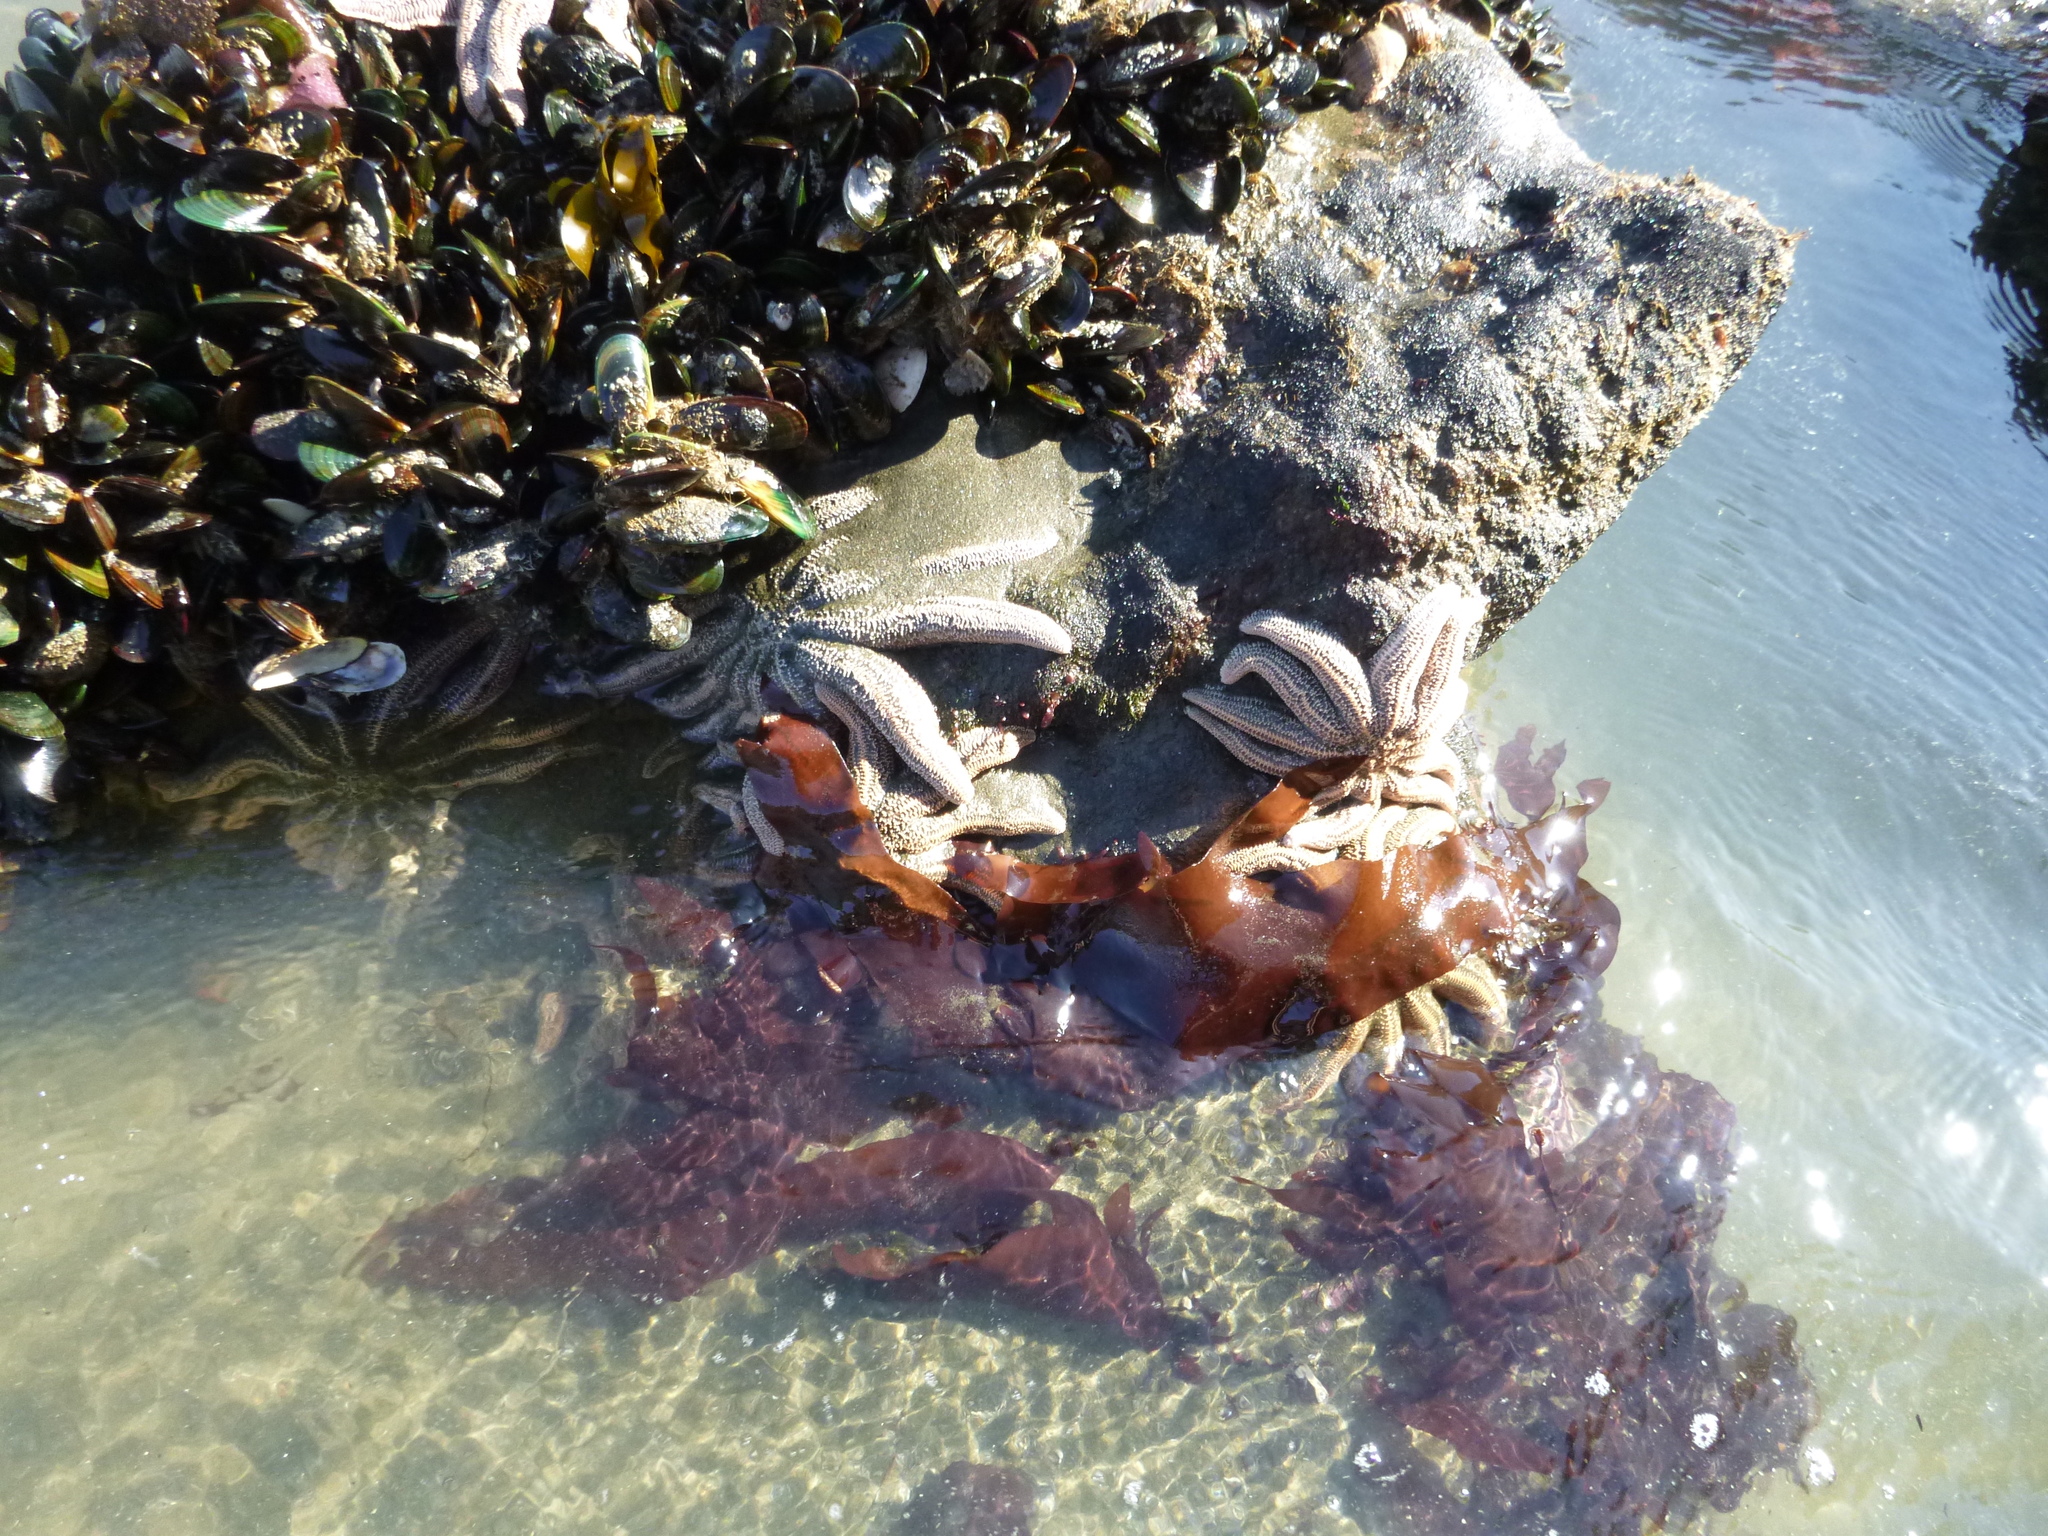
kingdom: Animalia
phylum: Echinodermata
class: Asteroidea
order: Forcipulatida
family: Stichasteridae
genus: Stichaster
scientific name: Stichaster australis
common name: Reef starfish
